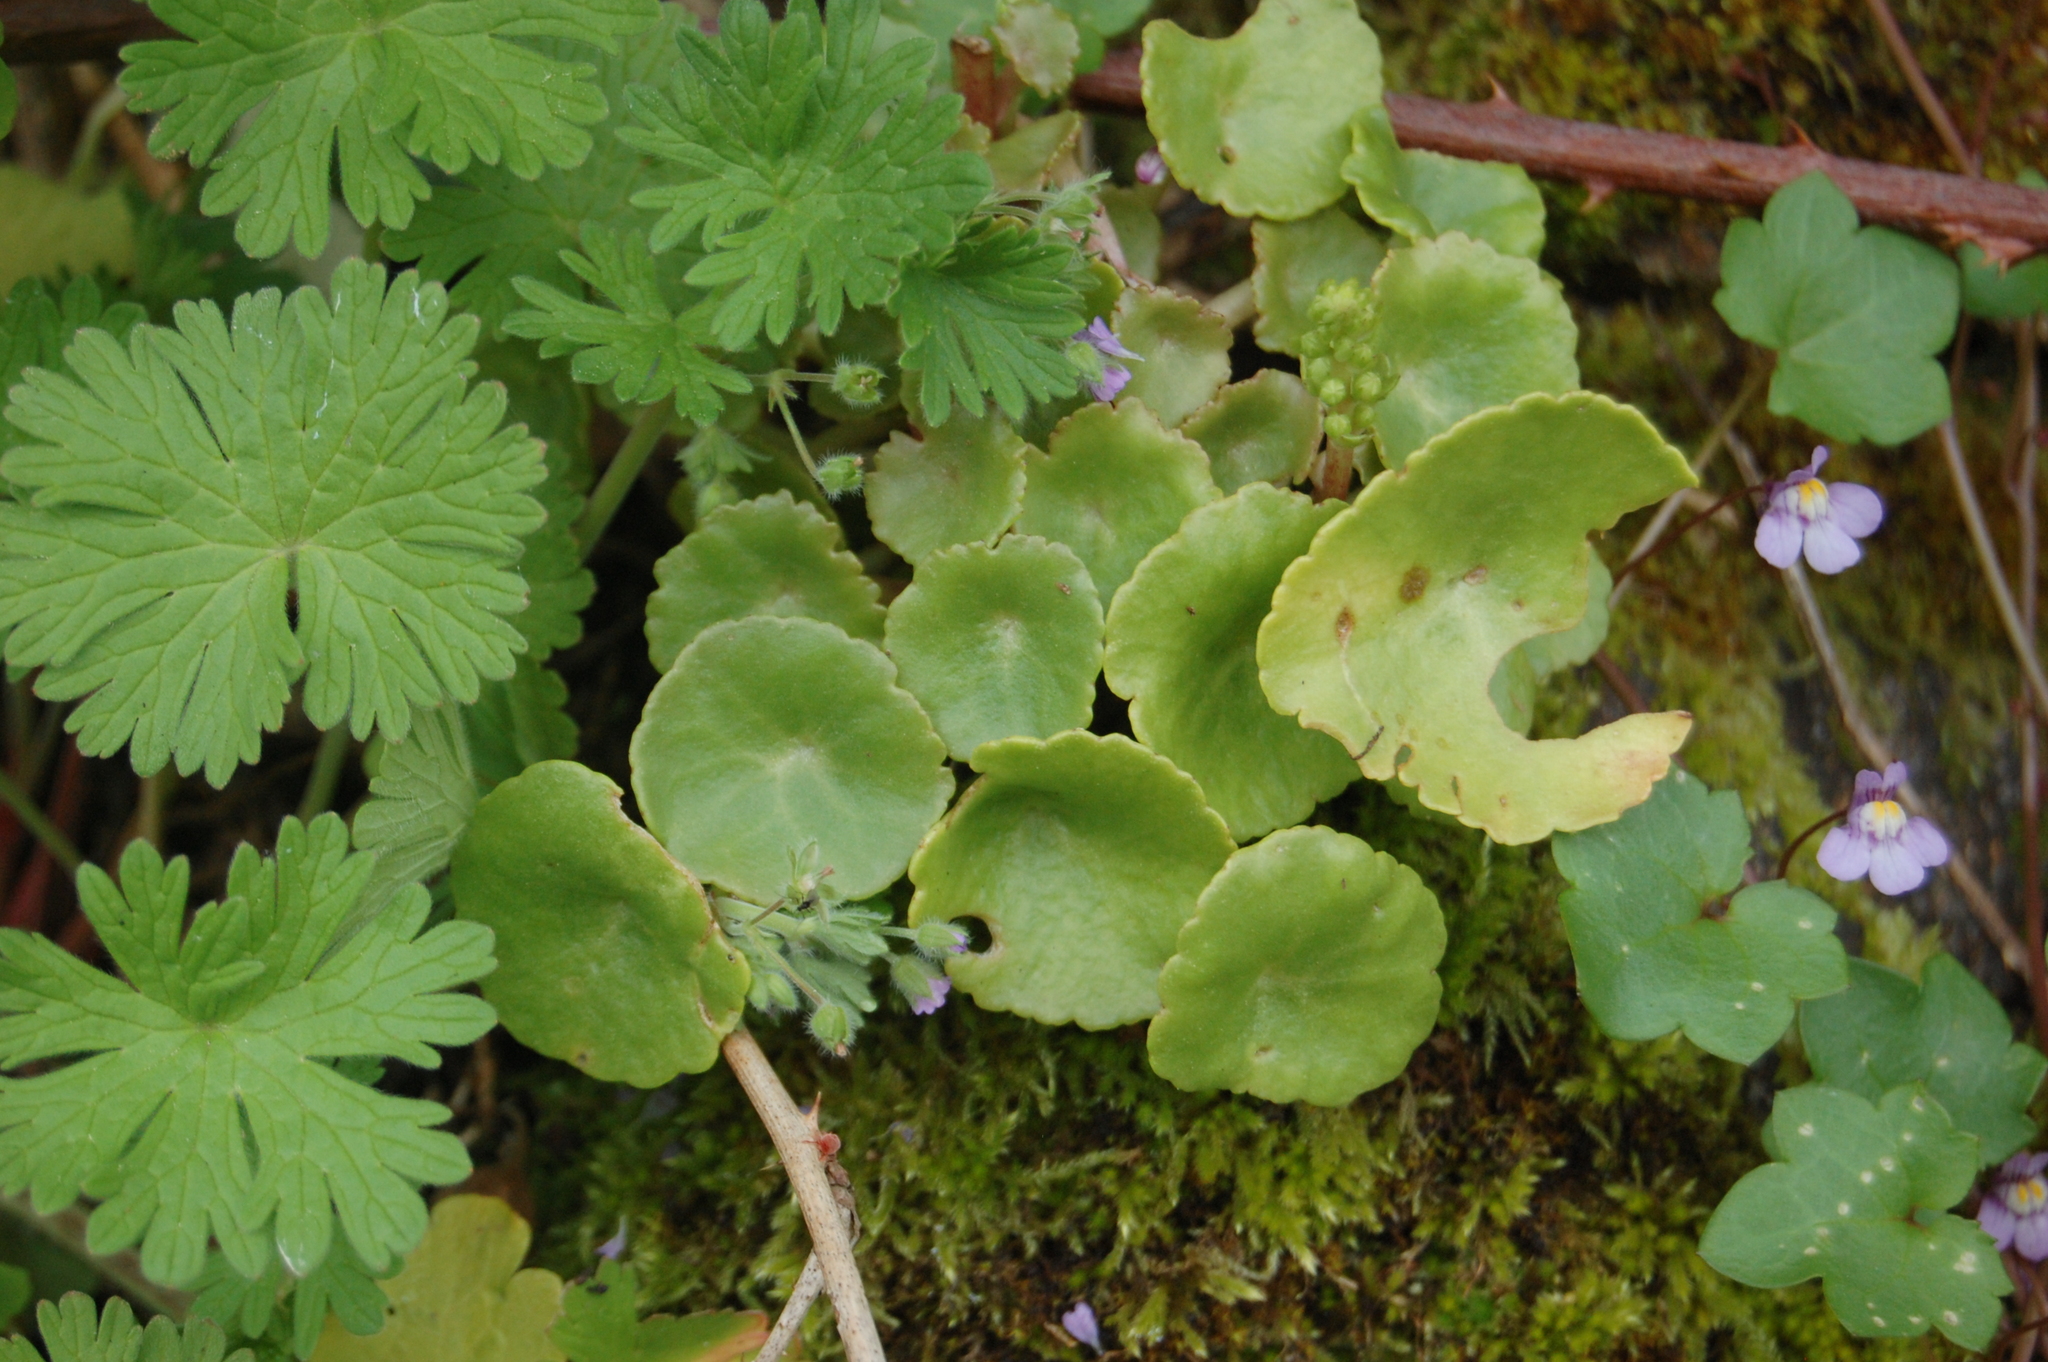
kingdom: Plantae
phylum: Tracheophyta
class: Magnoliopsida
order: Saxifragales
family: Crassulaceae
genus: Umbilicus
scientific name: Umbilicus rupestris
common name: Navelwort
